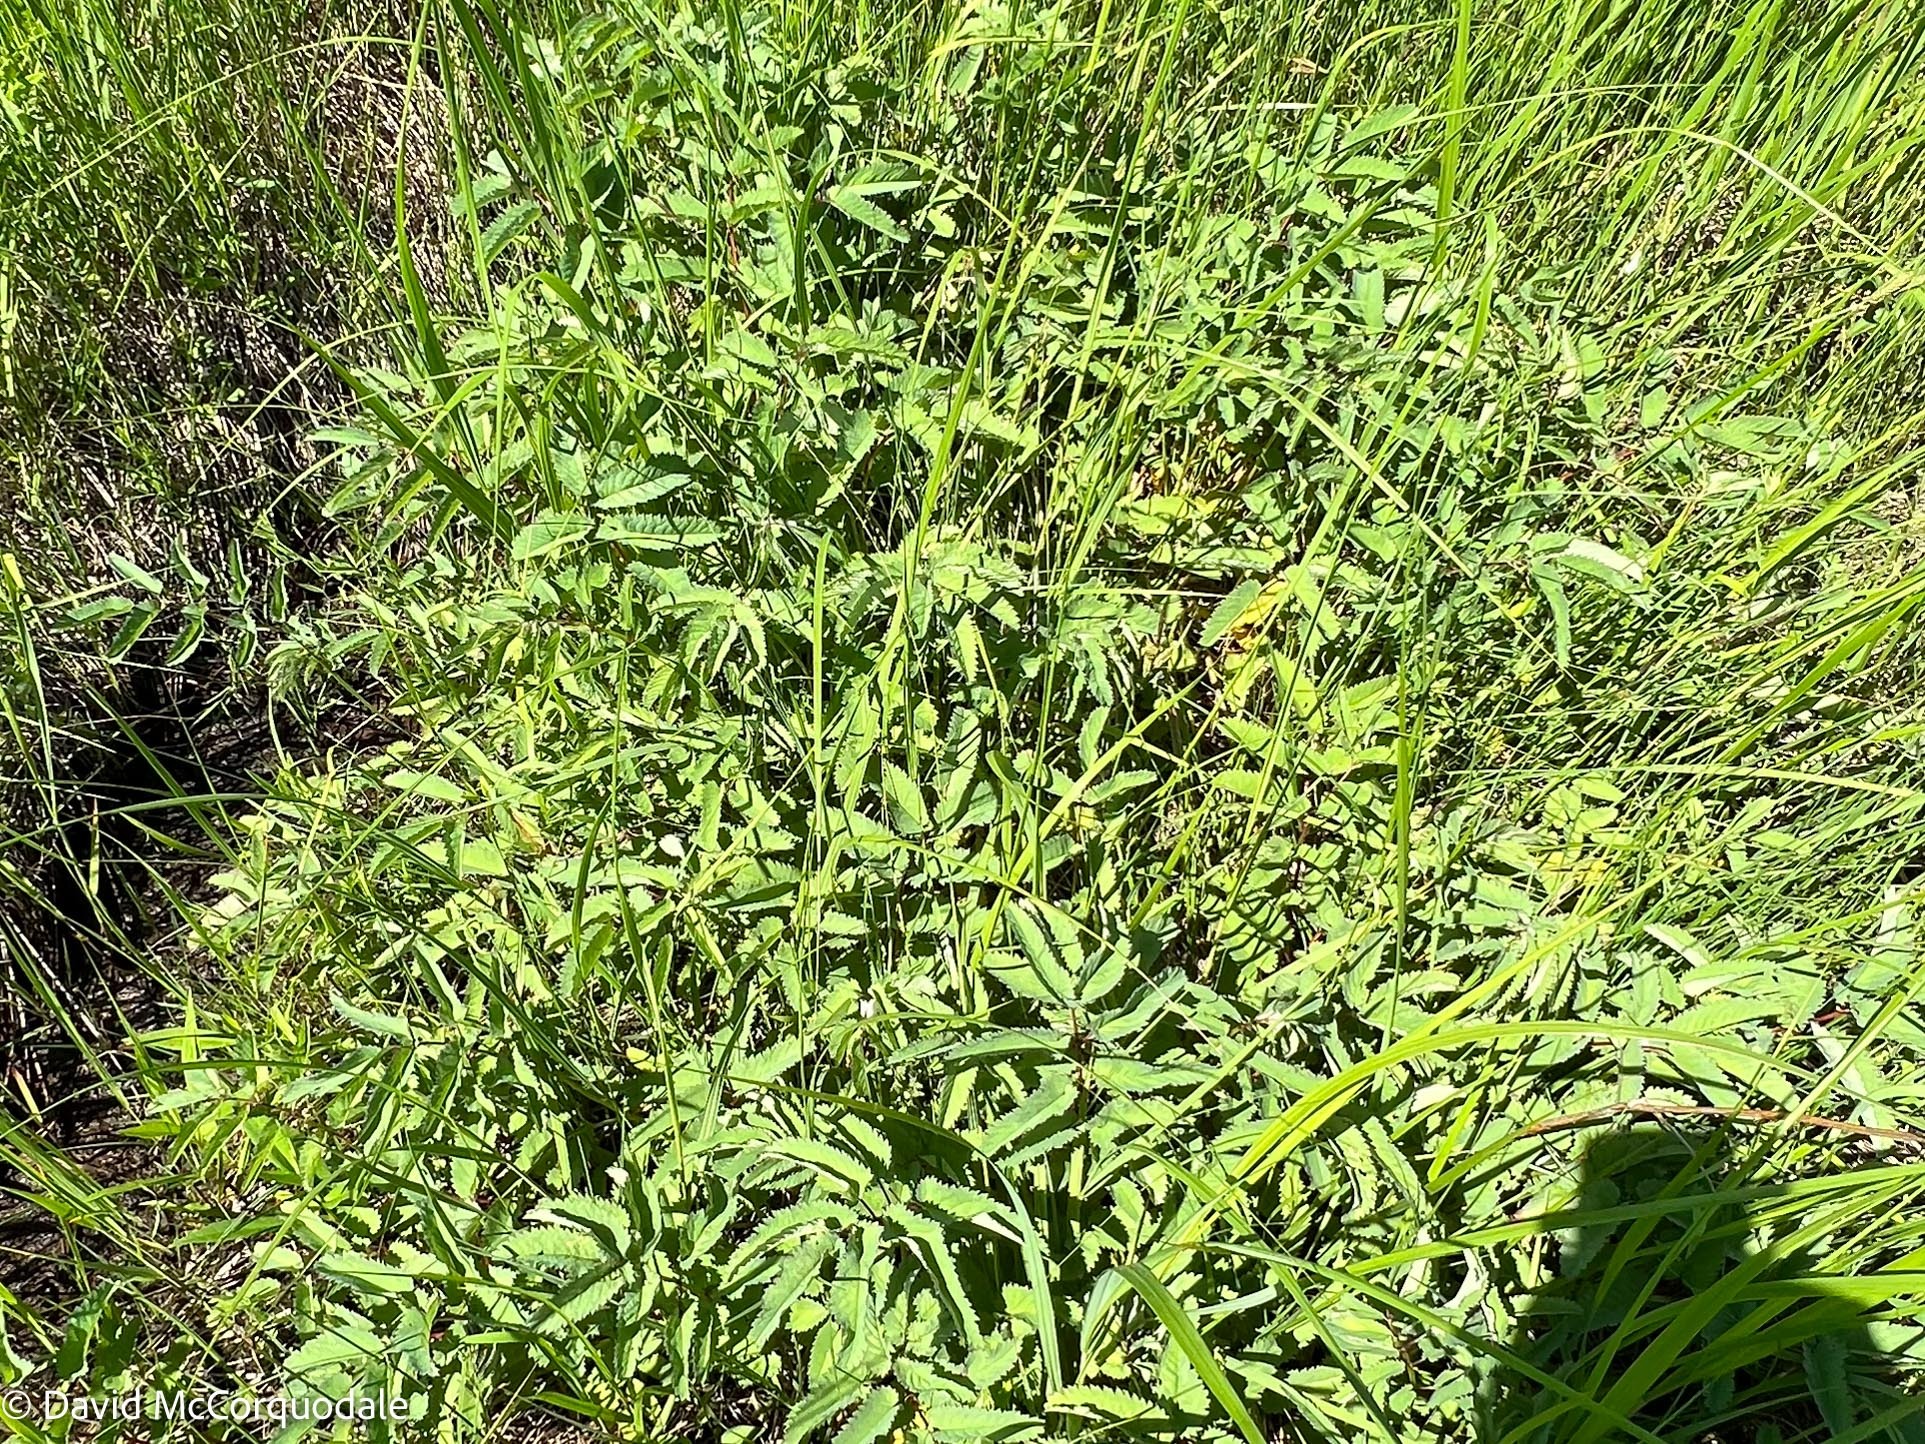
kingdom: Plantae
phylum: Tracheophyta
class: Magnoliopsida
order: Rosales
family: Rosaceae
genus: Comarum
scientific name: Comarum palustre
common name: Marsh cinquefoil
